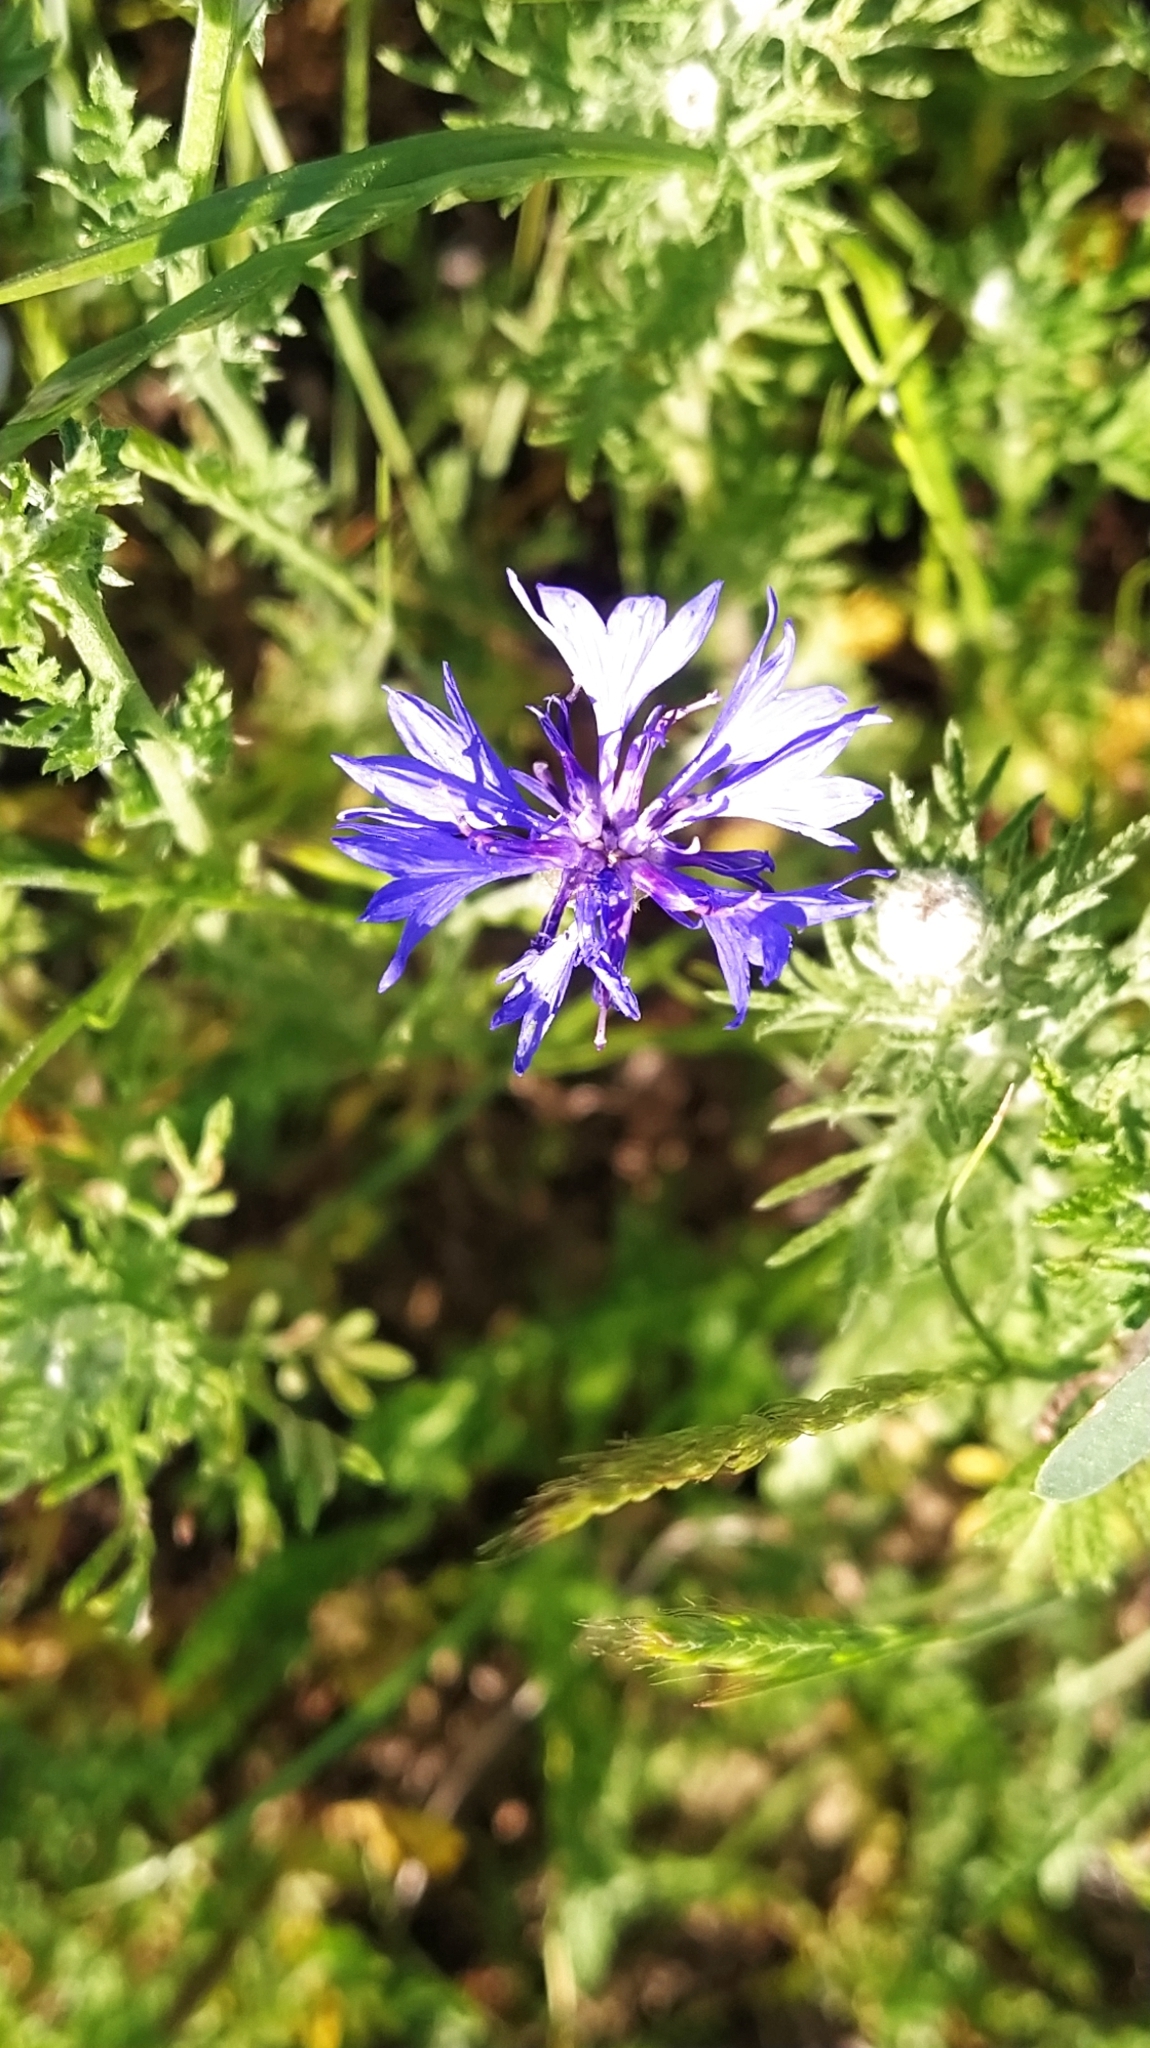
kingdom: Plantae
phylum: Tracheophyta
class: Magnoliopsida
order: Asterales
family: Asteraceae
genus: Centaurea
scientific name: Centaurea cyanus
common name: Cornflower
